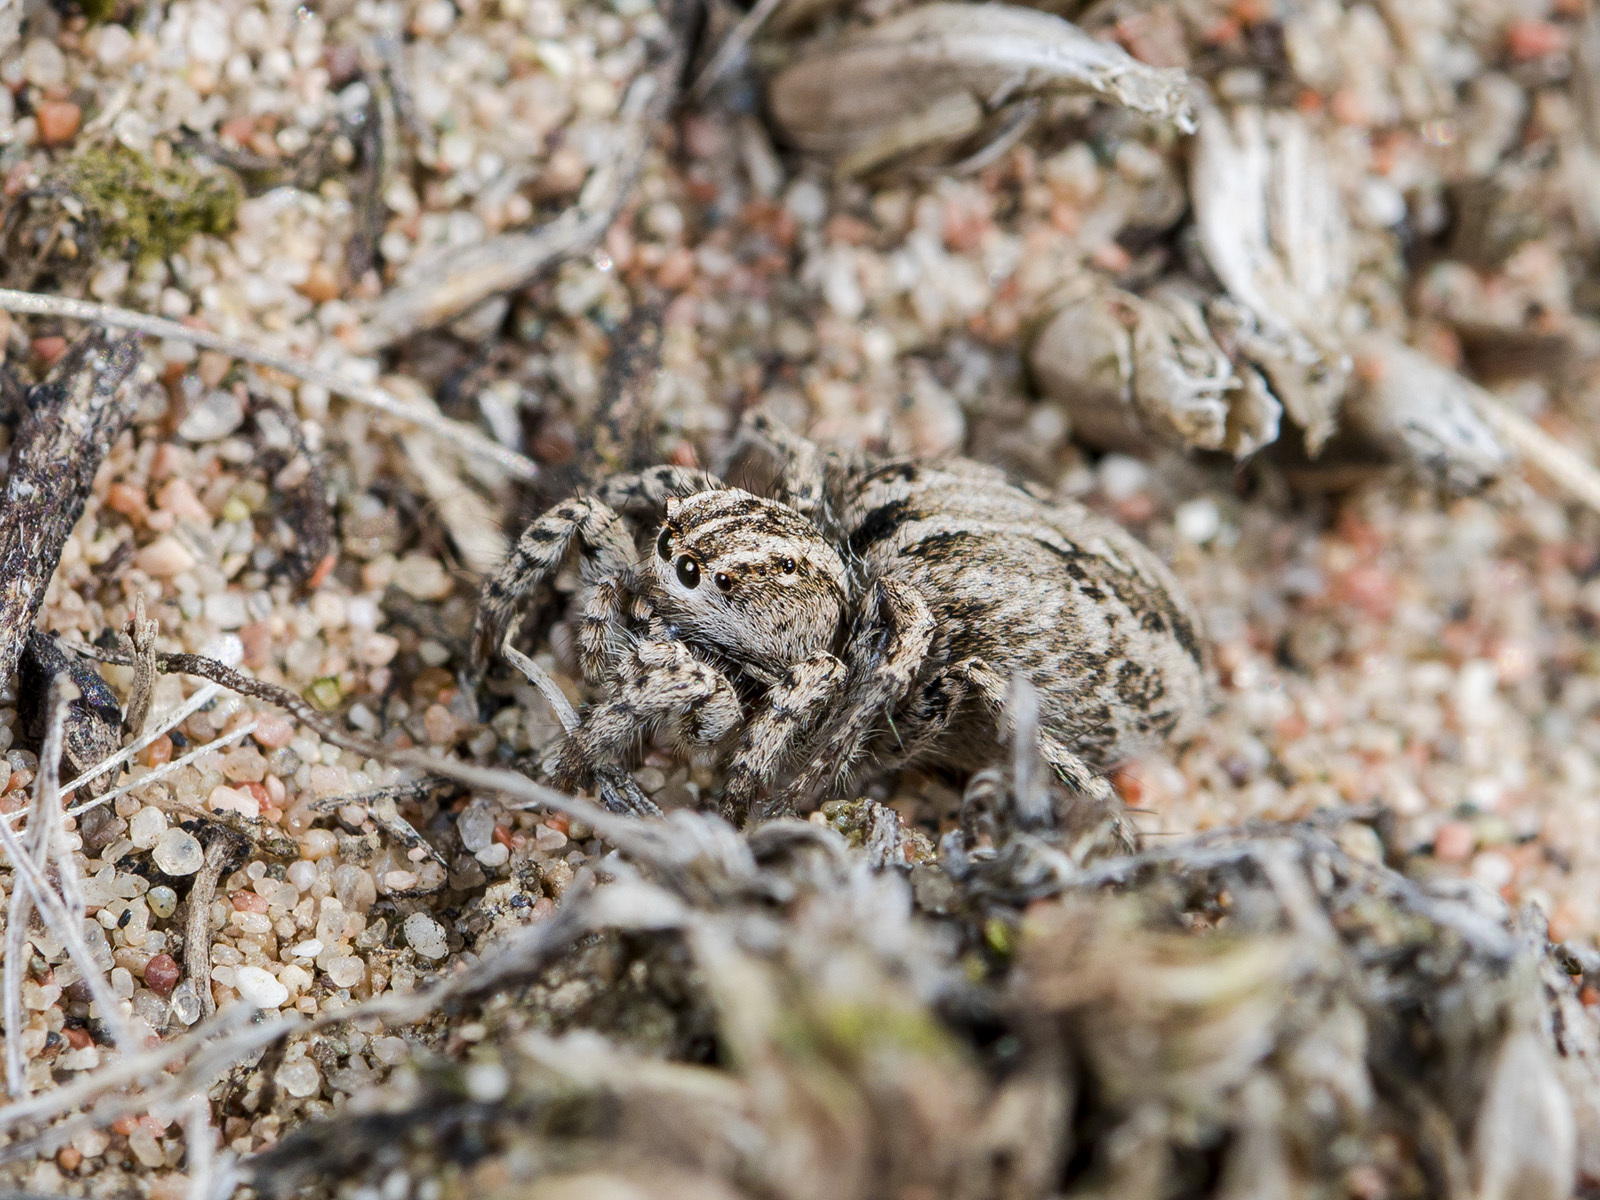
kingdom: Animalia
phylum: Arthropoda
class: Arachnida
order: Araneae
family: Salticidae
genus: Aelurillus
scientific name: Aelurillus m-nigrum
